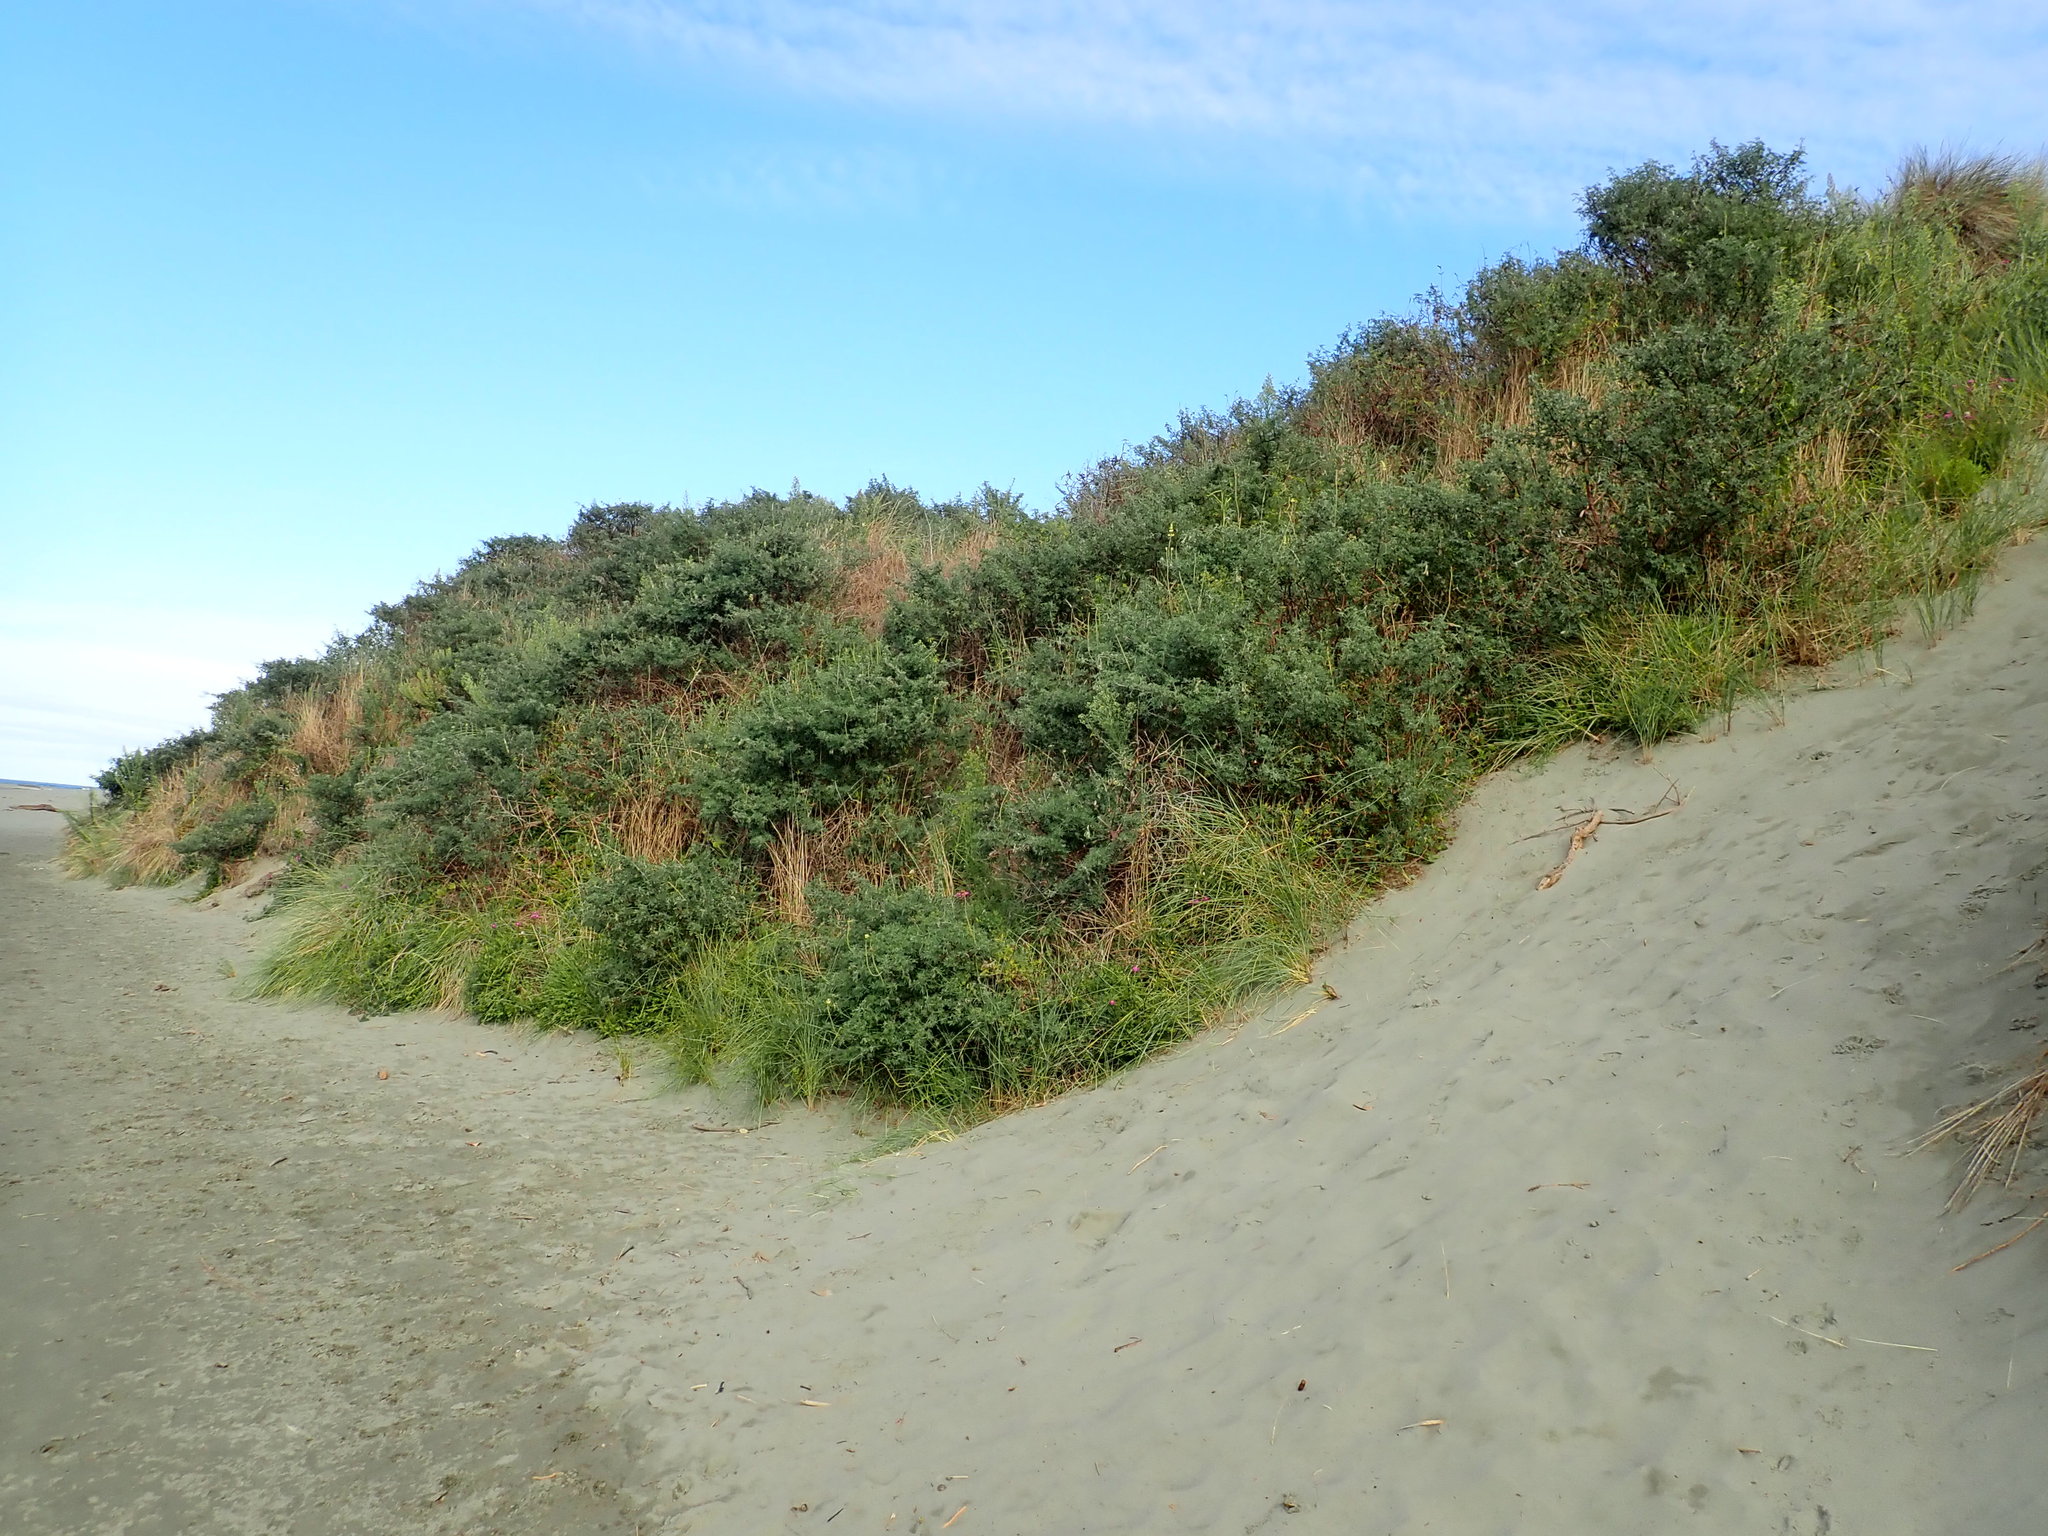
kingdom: Plantae
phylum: Tracheophyta
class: Magnoliopsida
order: Fabales
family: Fabaceae
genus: Lupinus
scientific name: Lupinus arboreus
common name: Yellow bush lupine
